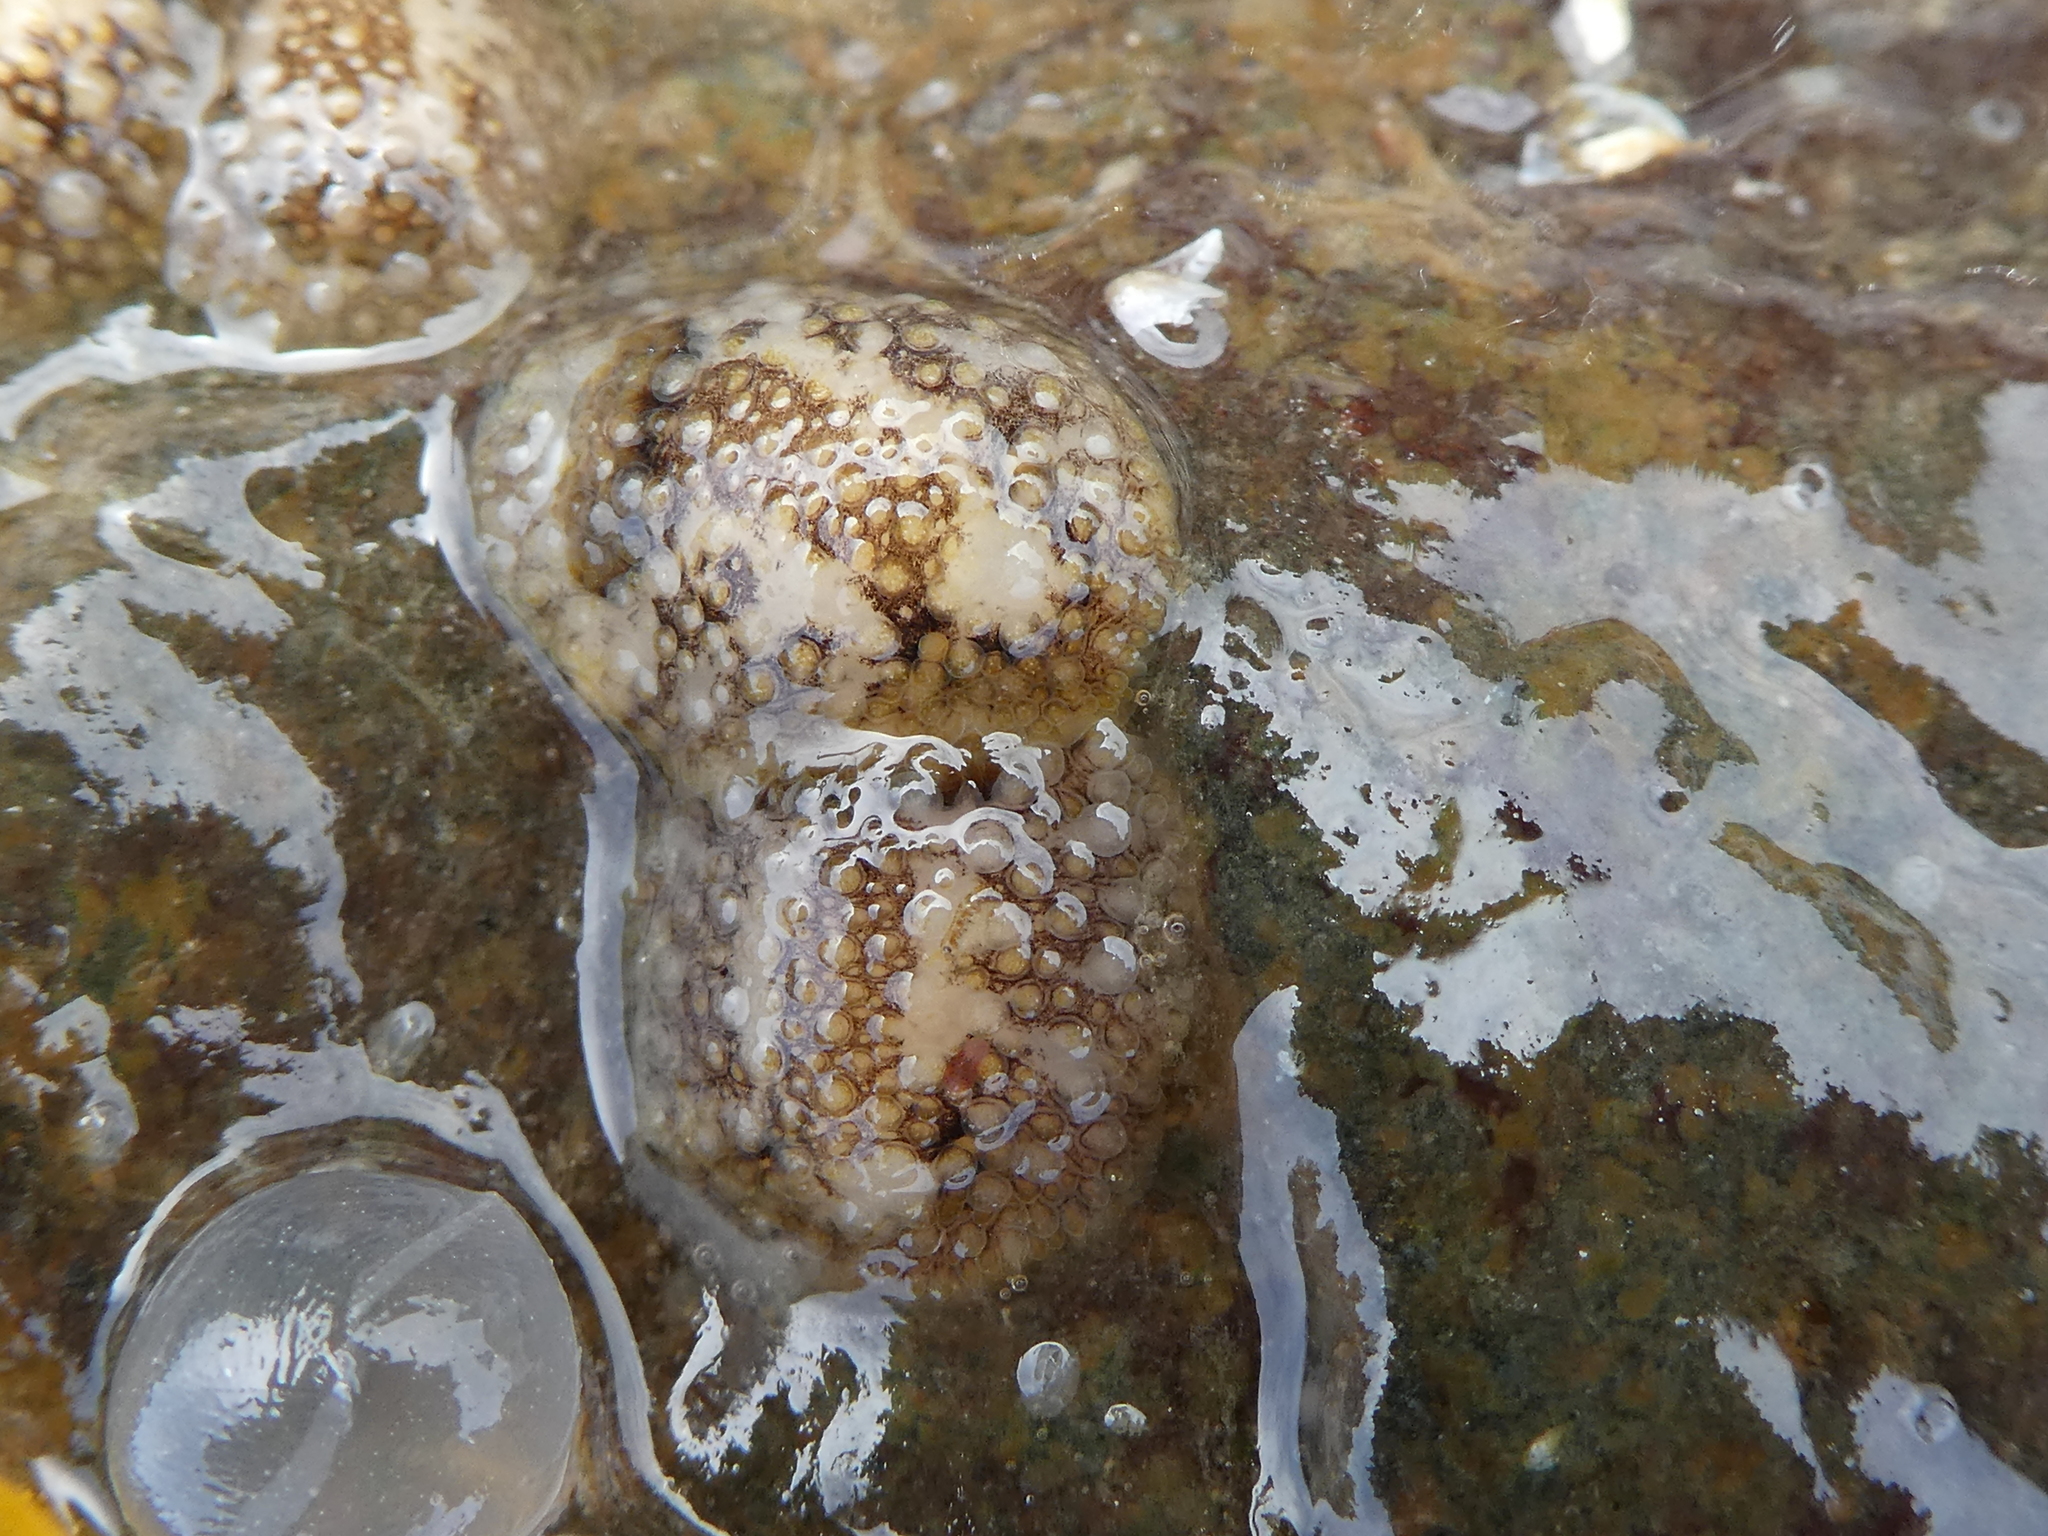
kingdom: Animalia
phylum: Mollusca
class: Gastropoda
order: Nudibranchia
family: Onchidorididae
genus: Onchidoris
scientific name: Onchidoris bilamellata
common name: Barnacle-eating onchidoris
